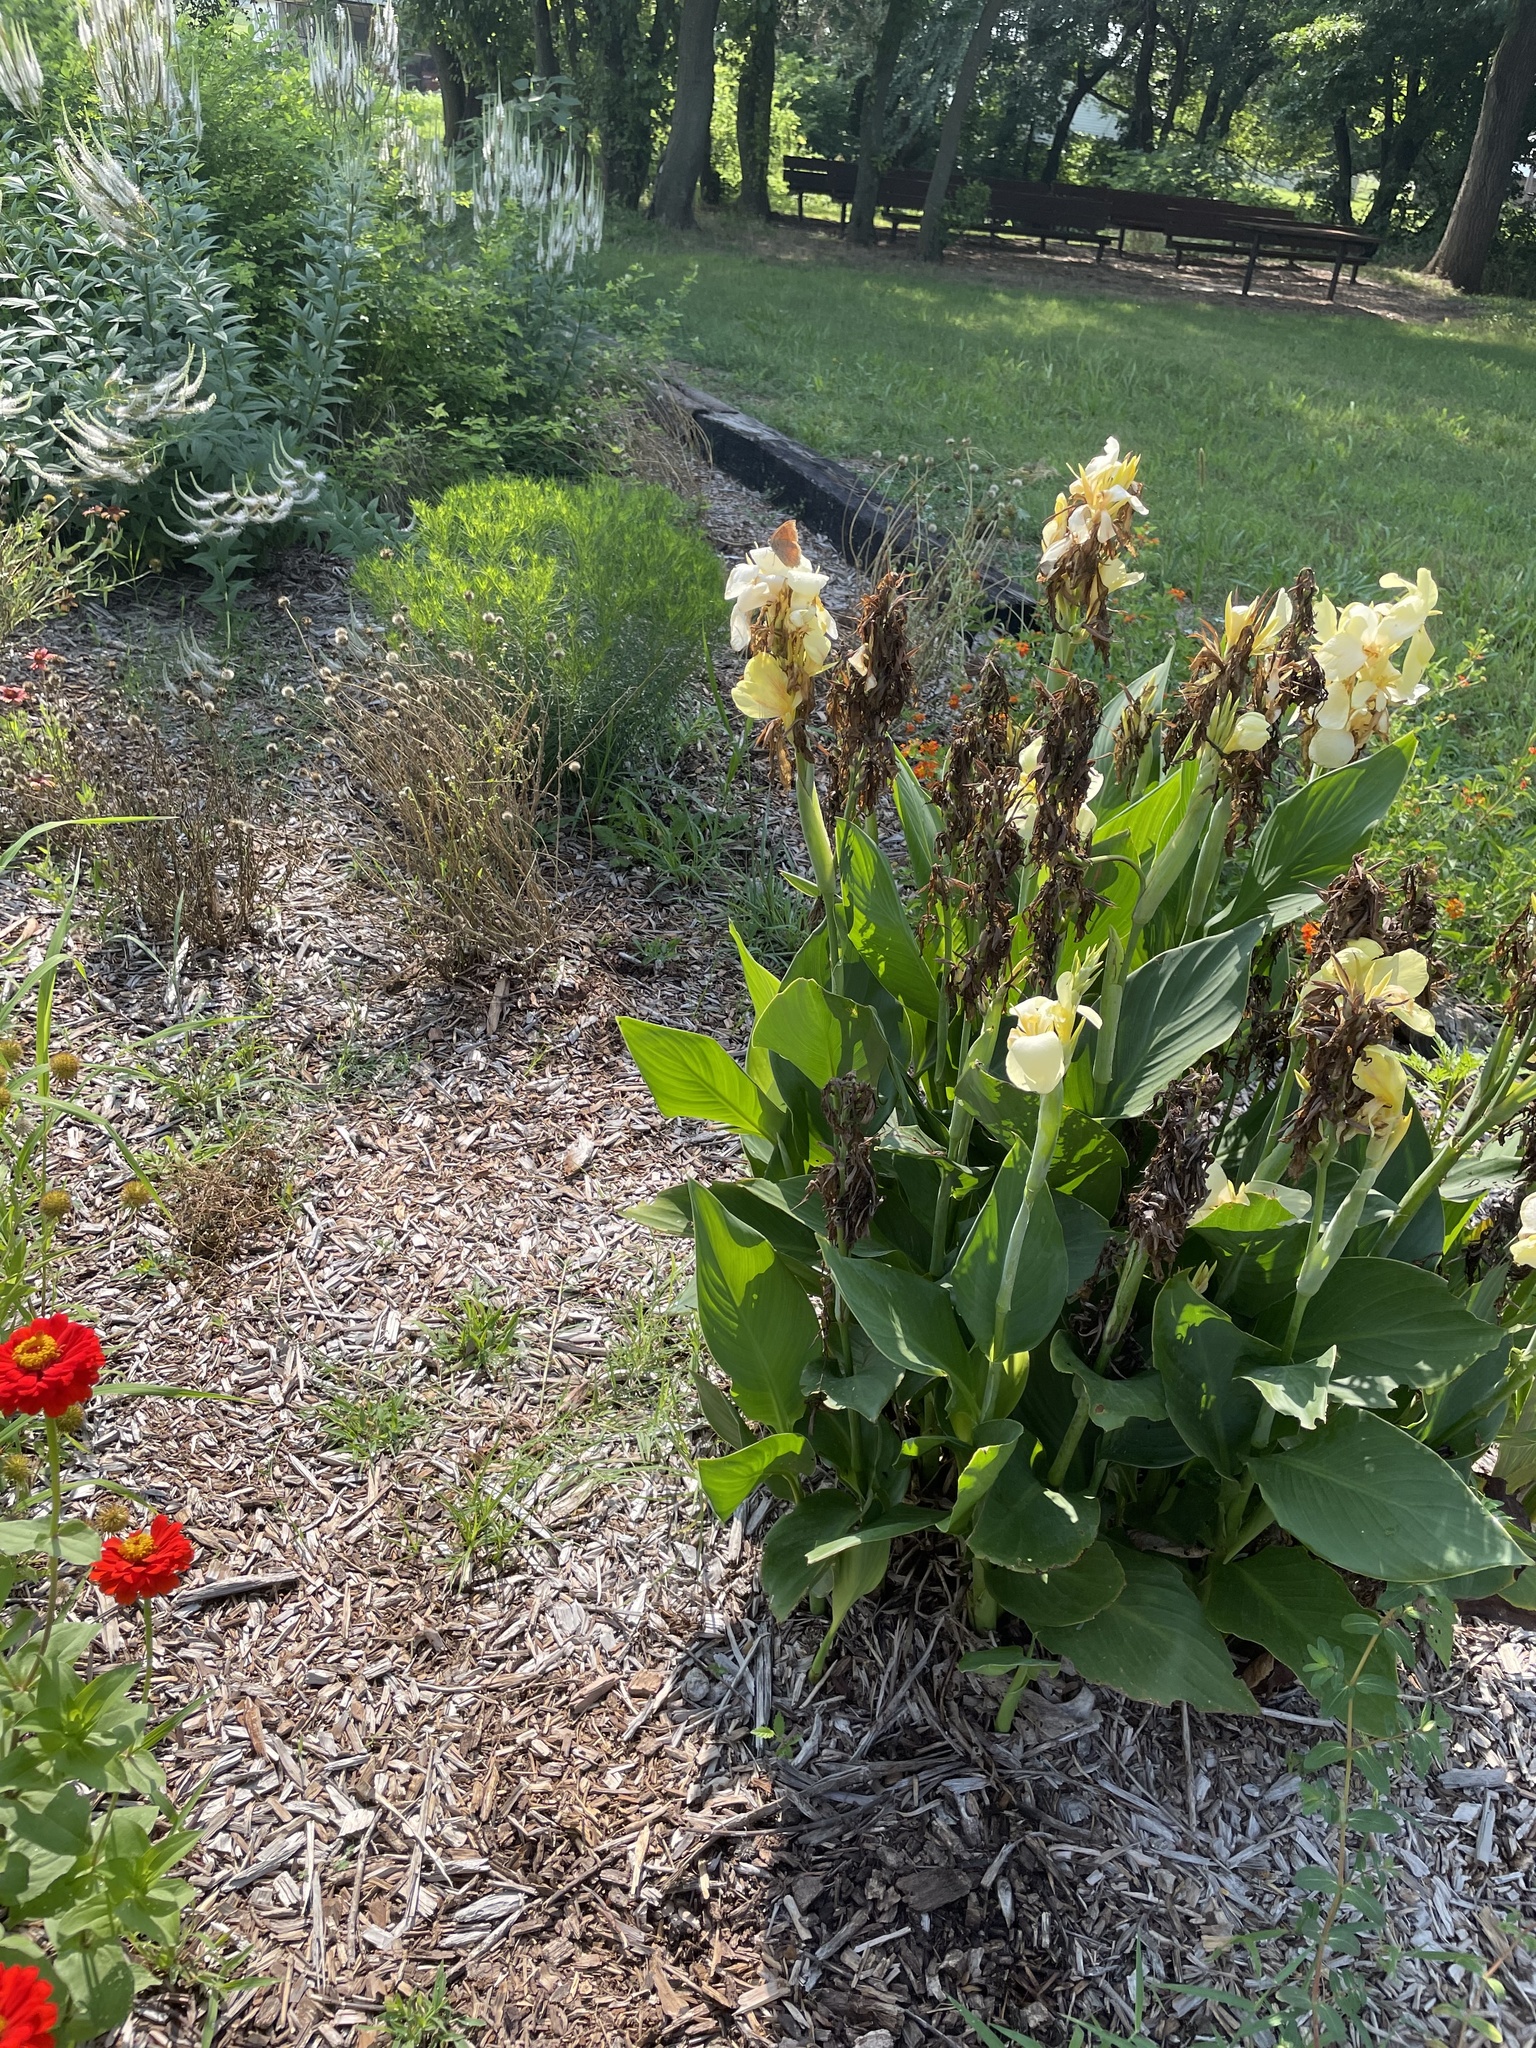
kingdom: Animalia
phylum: Arthropoda
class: Insecta
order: Lepidoptera
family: Nymphalidae
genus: Anaea
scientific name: Anaea andria
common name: Goatweed leafwing
